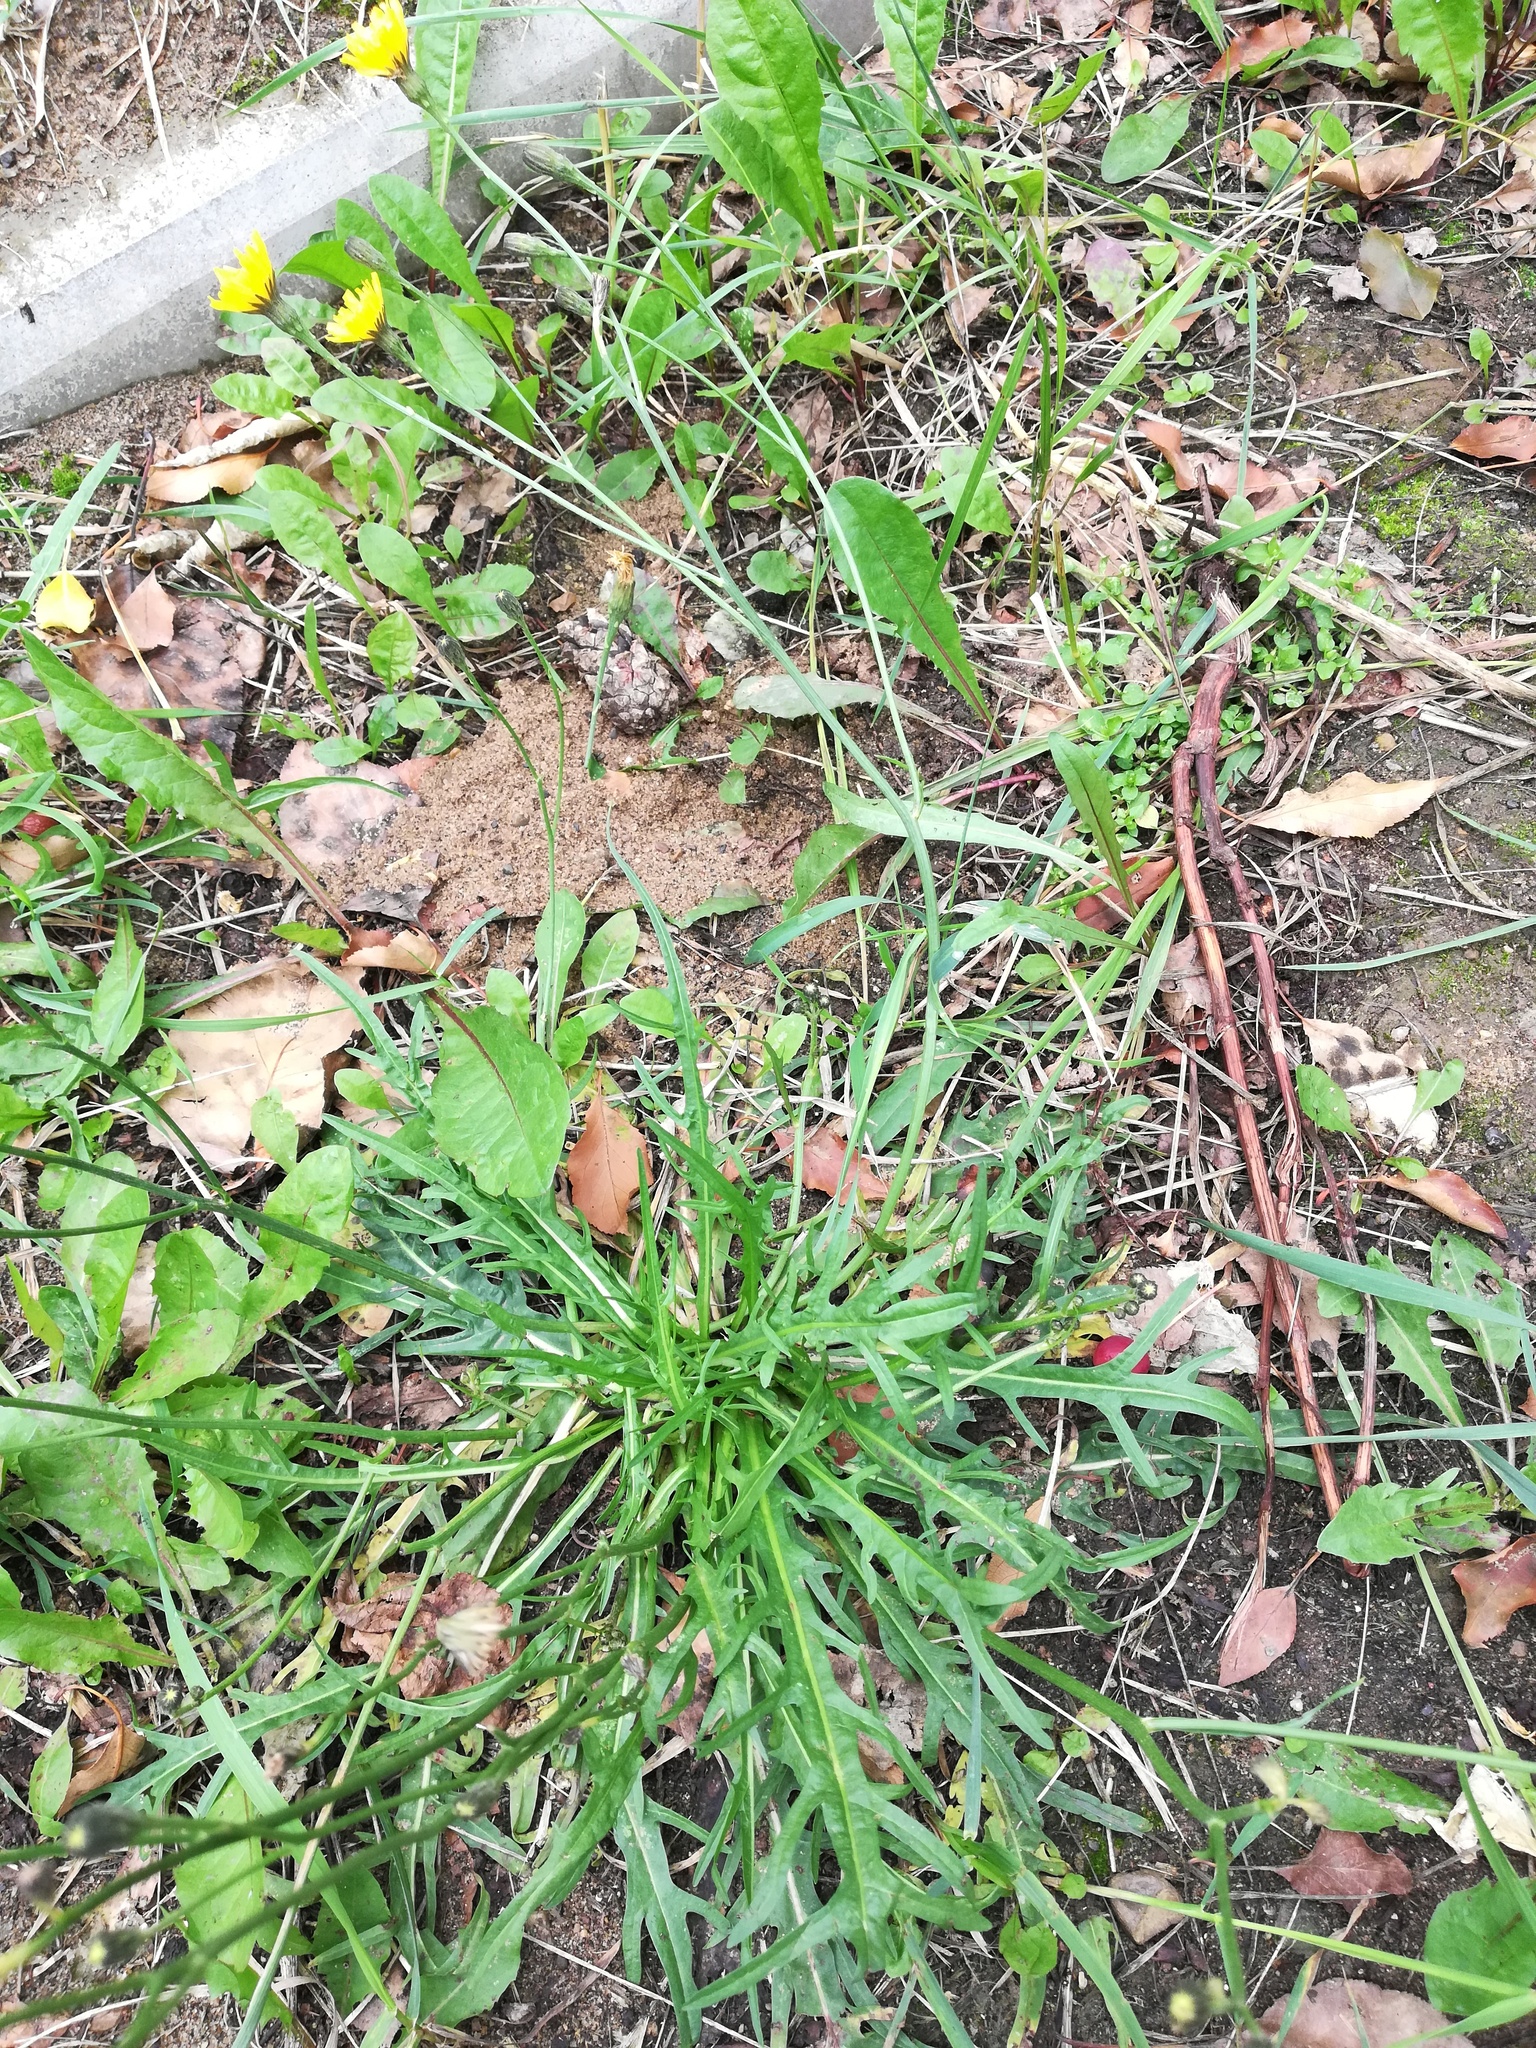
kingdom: Plantae
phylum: Tracheophyta
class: Magnoliopsida
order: Asterales
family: Asteraceae
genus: Scorzoneroides
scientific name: Scorzoneroides autumnalis
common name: Autumn hawkbit
